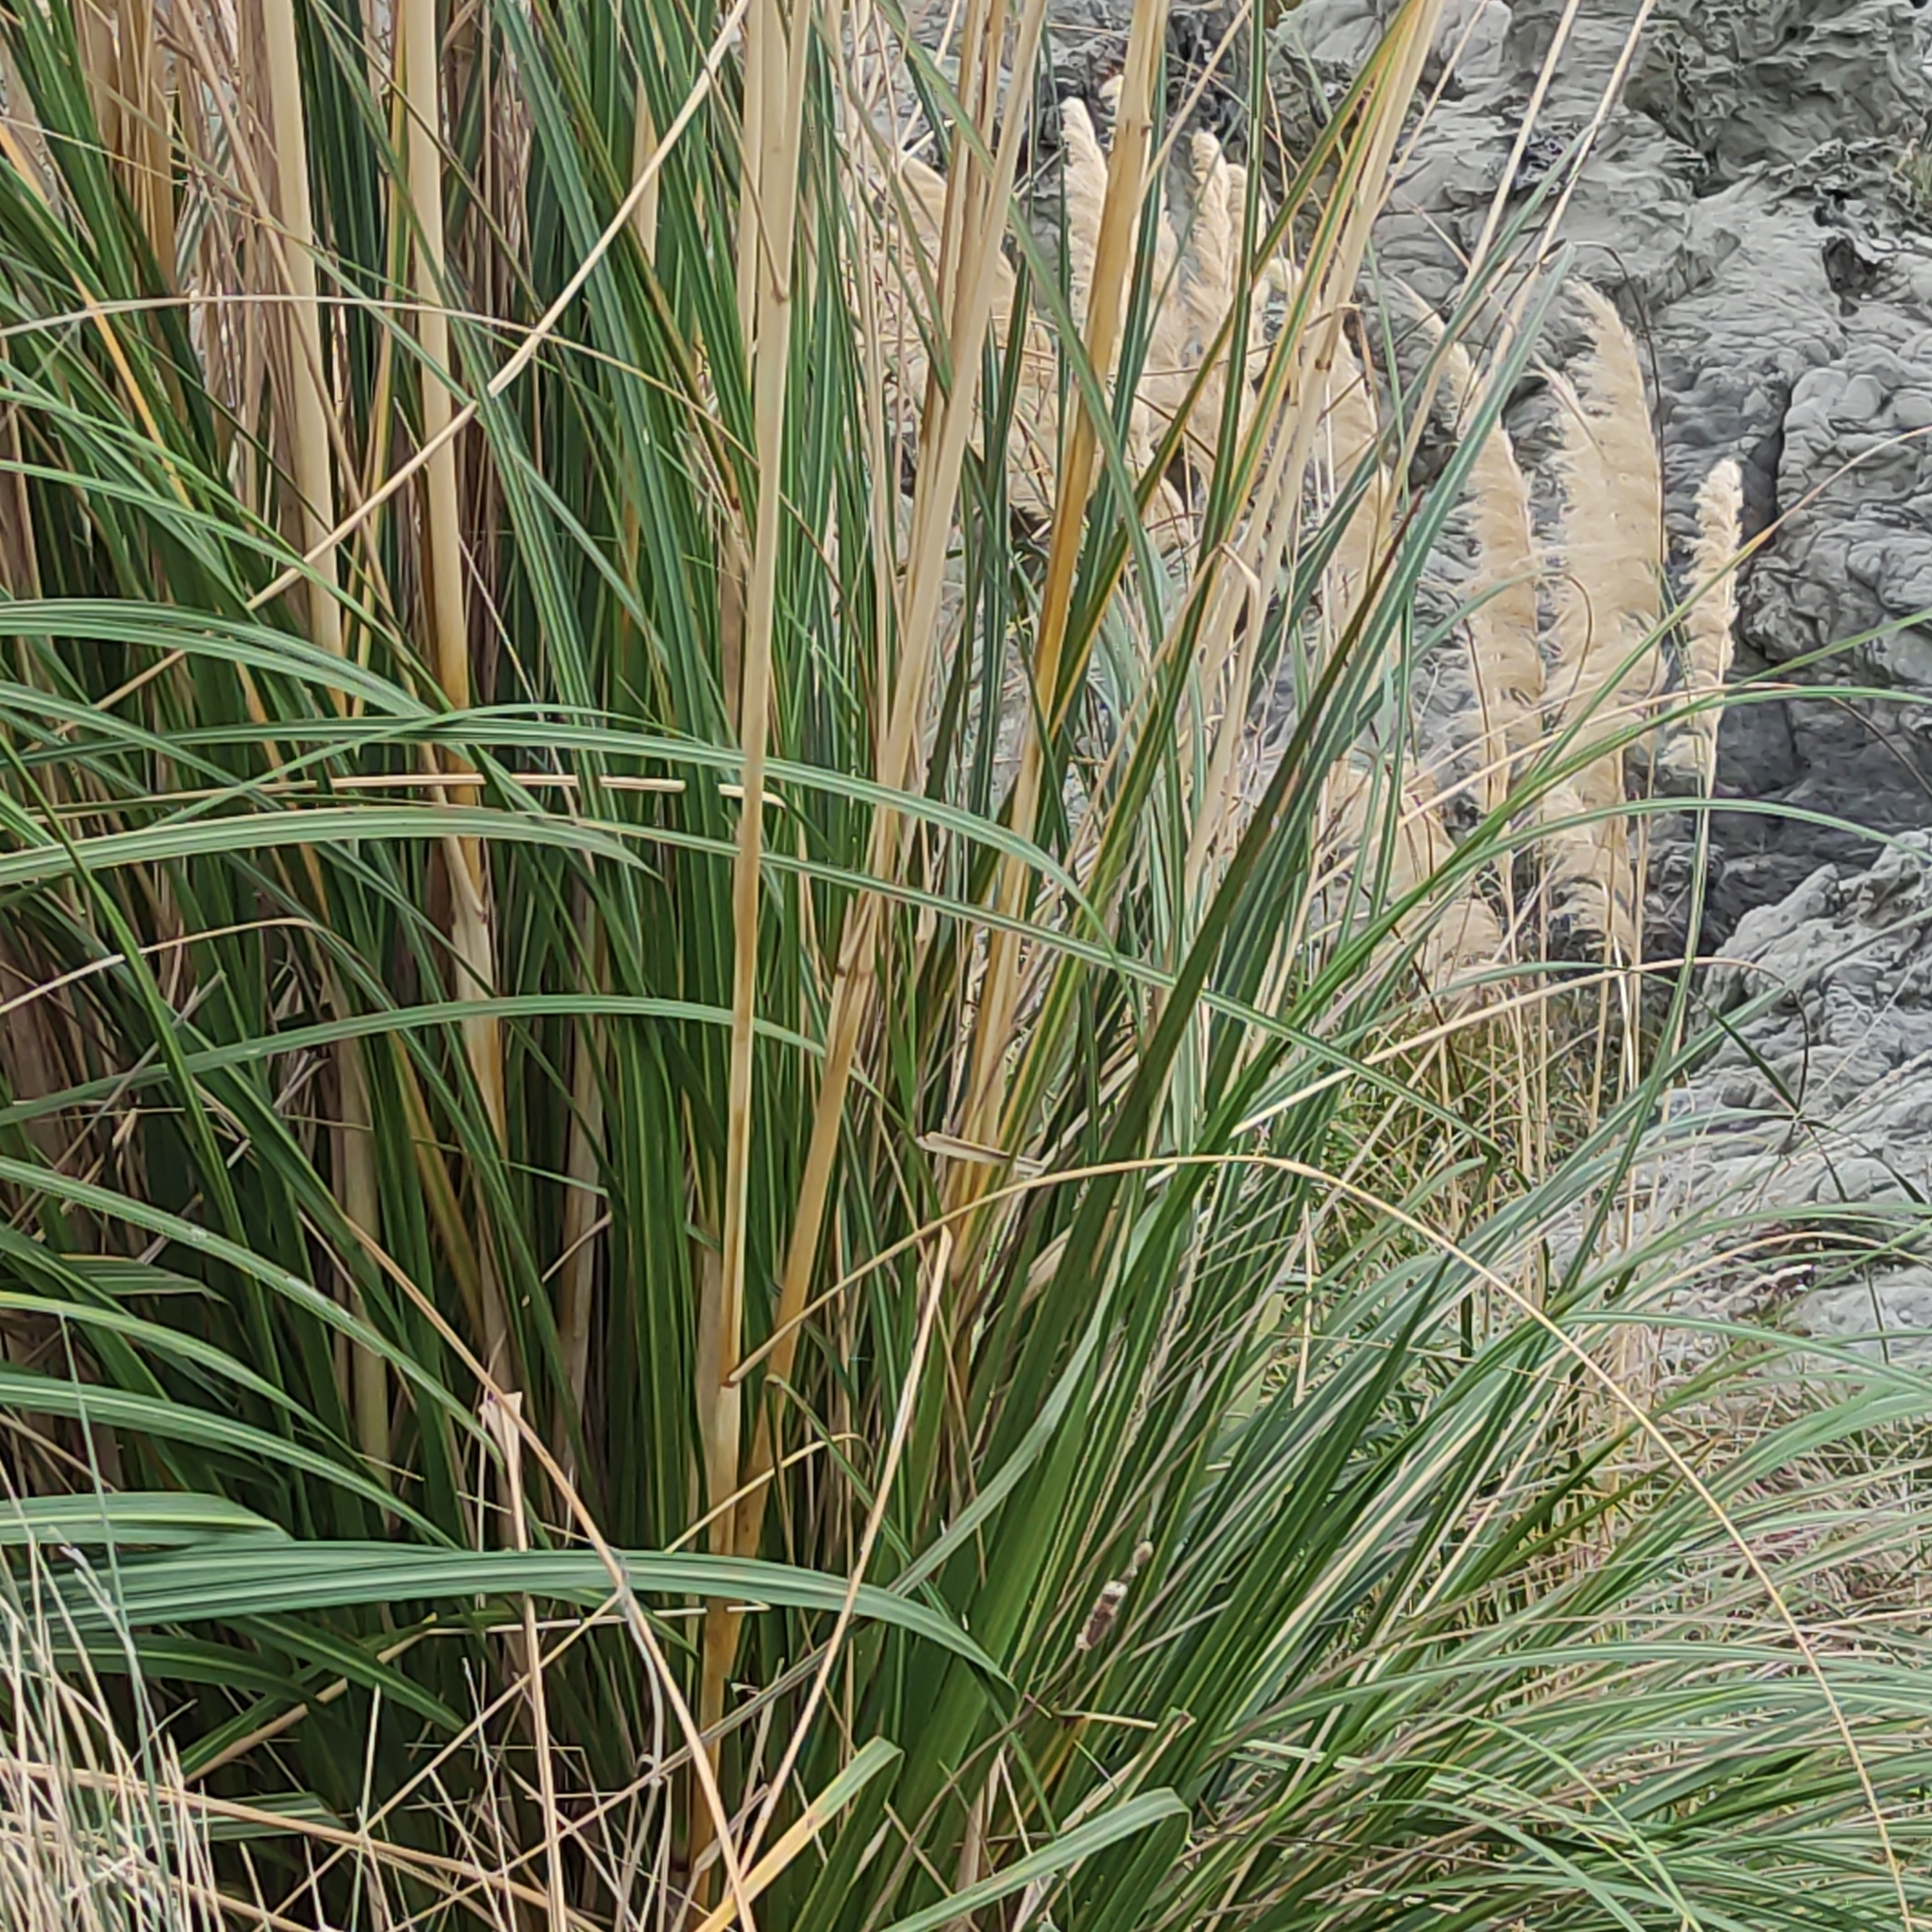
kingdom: Plantae
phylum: Tracheophyta
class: Liliopsida
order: Poales
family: Poaceae
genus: Austroderia
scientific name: Austroderia richardii
